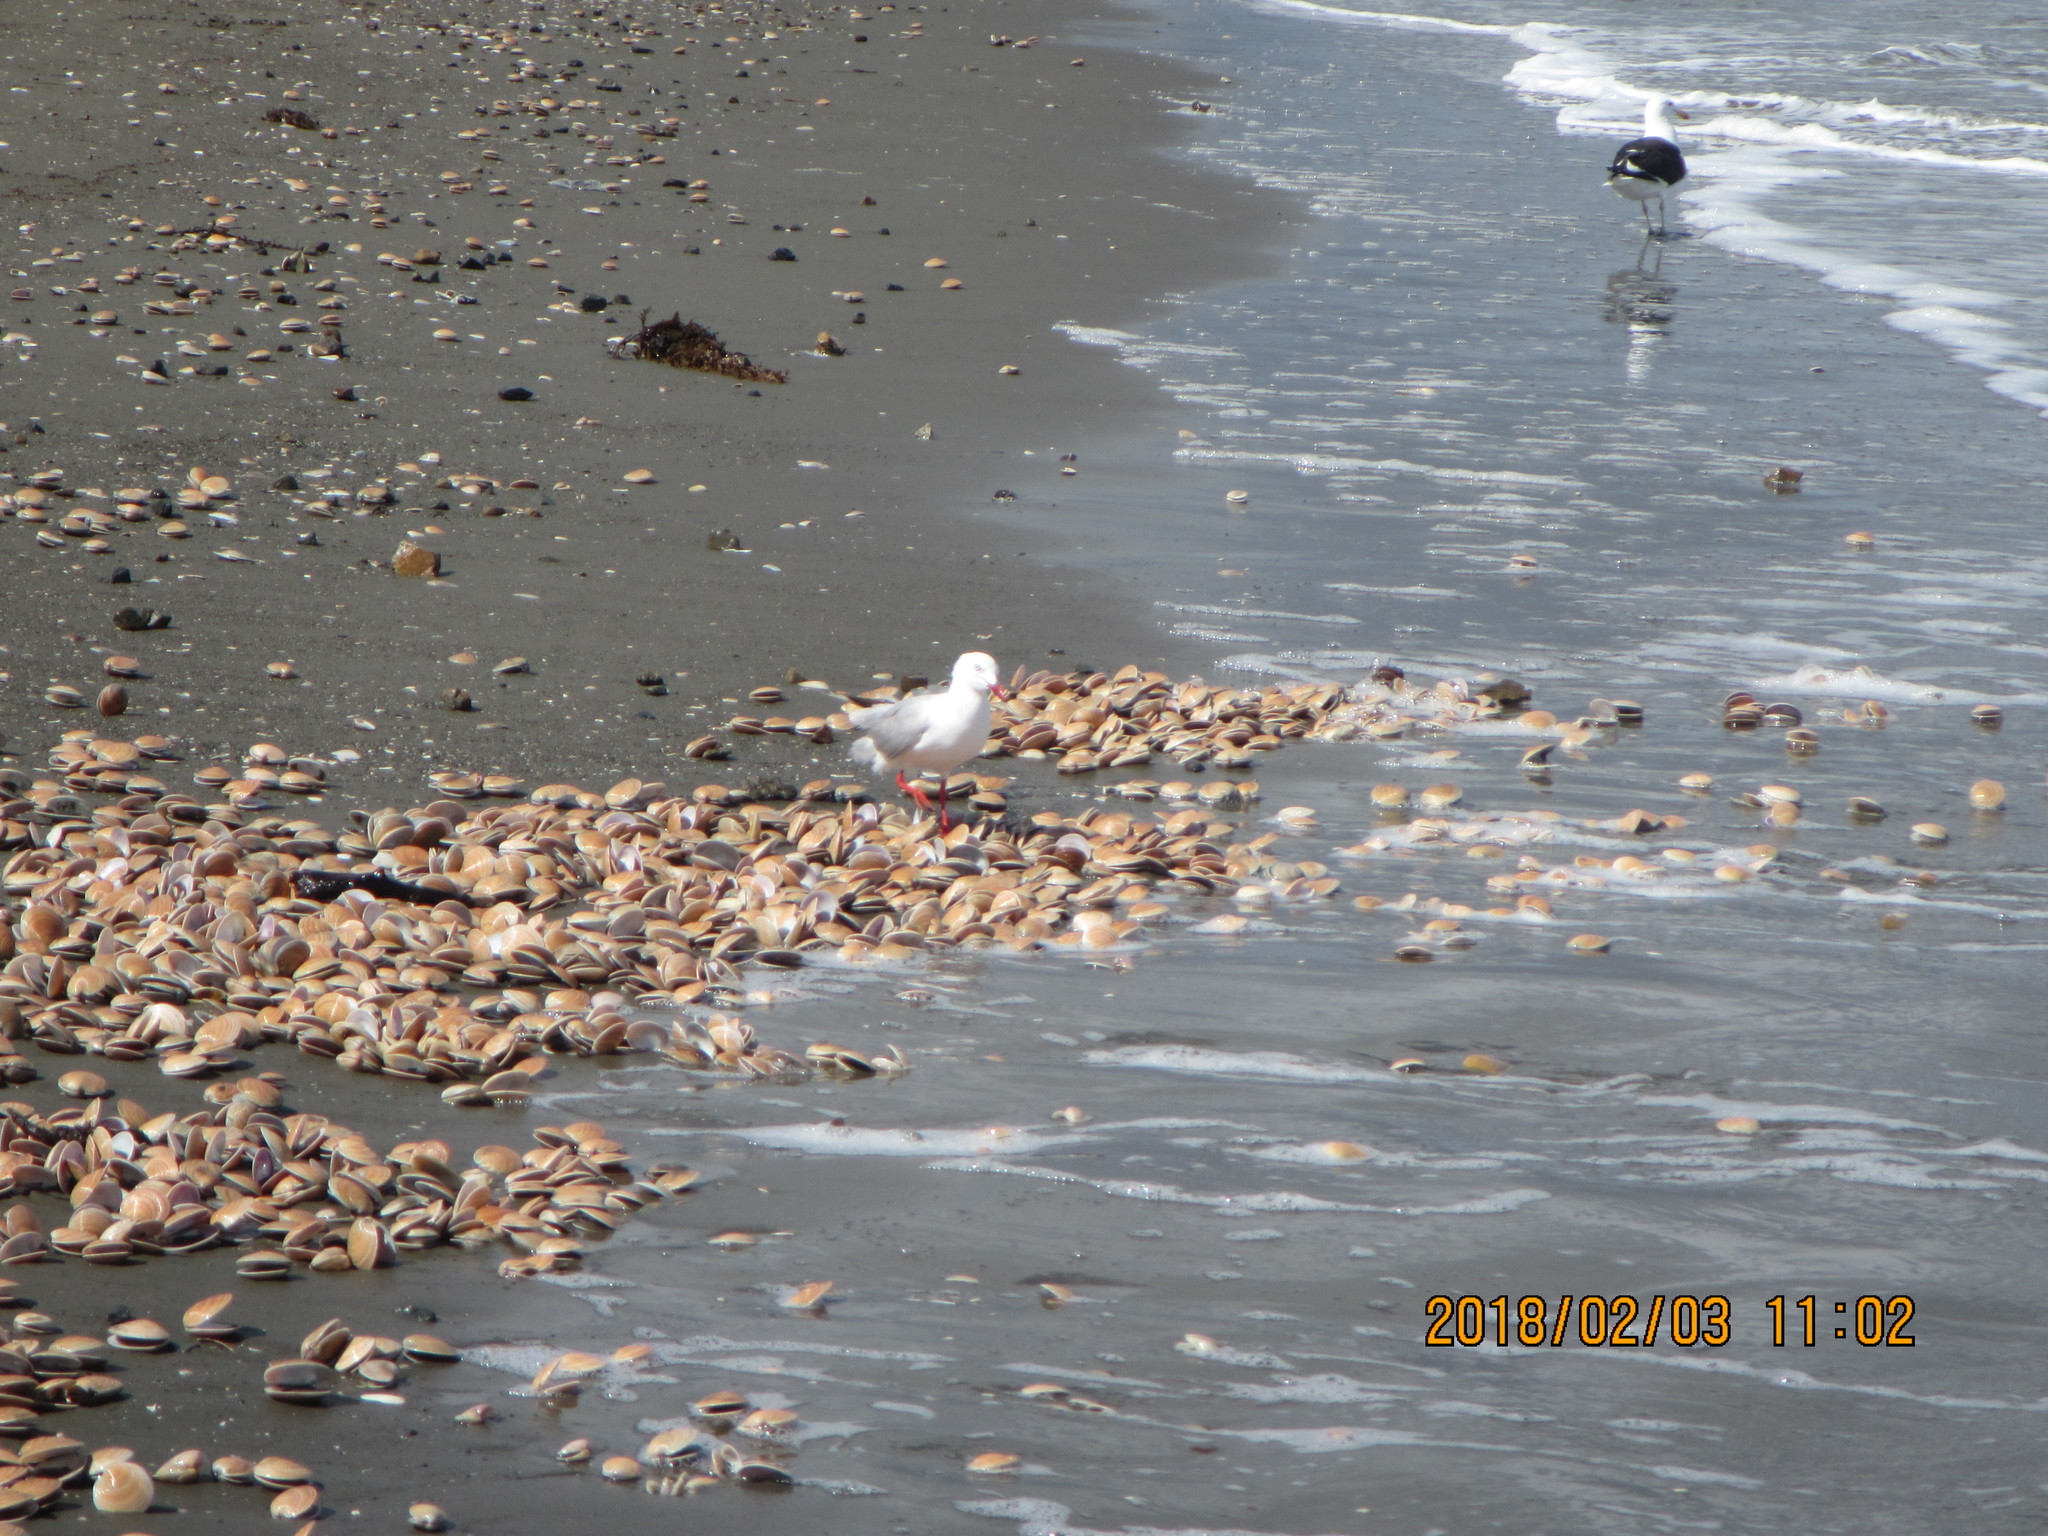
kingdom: Animalia
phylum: Mollusca
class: Bivalvia
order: Venerida
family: Veneridae
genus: Dosinia
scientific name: Dosinia anus
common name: Old-woman dosinia
